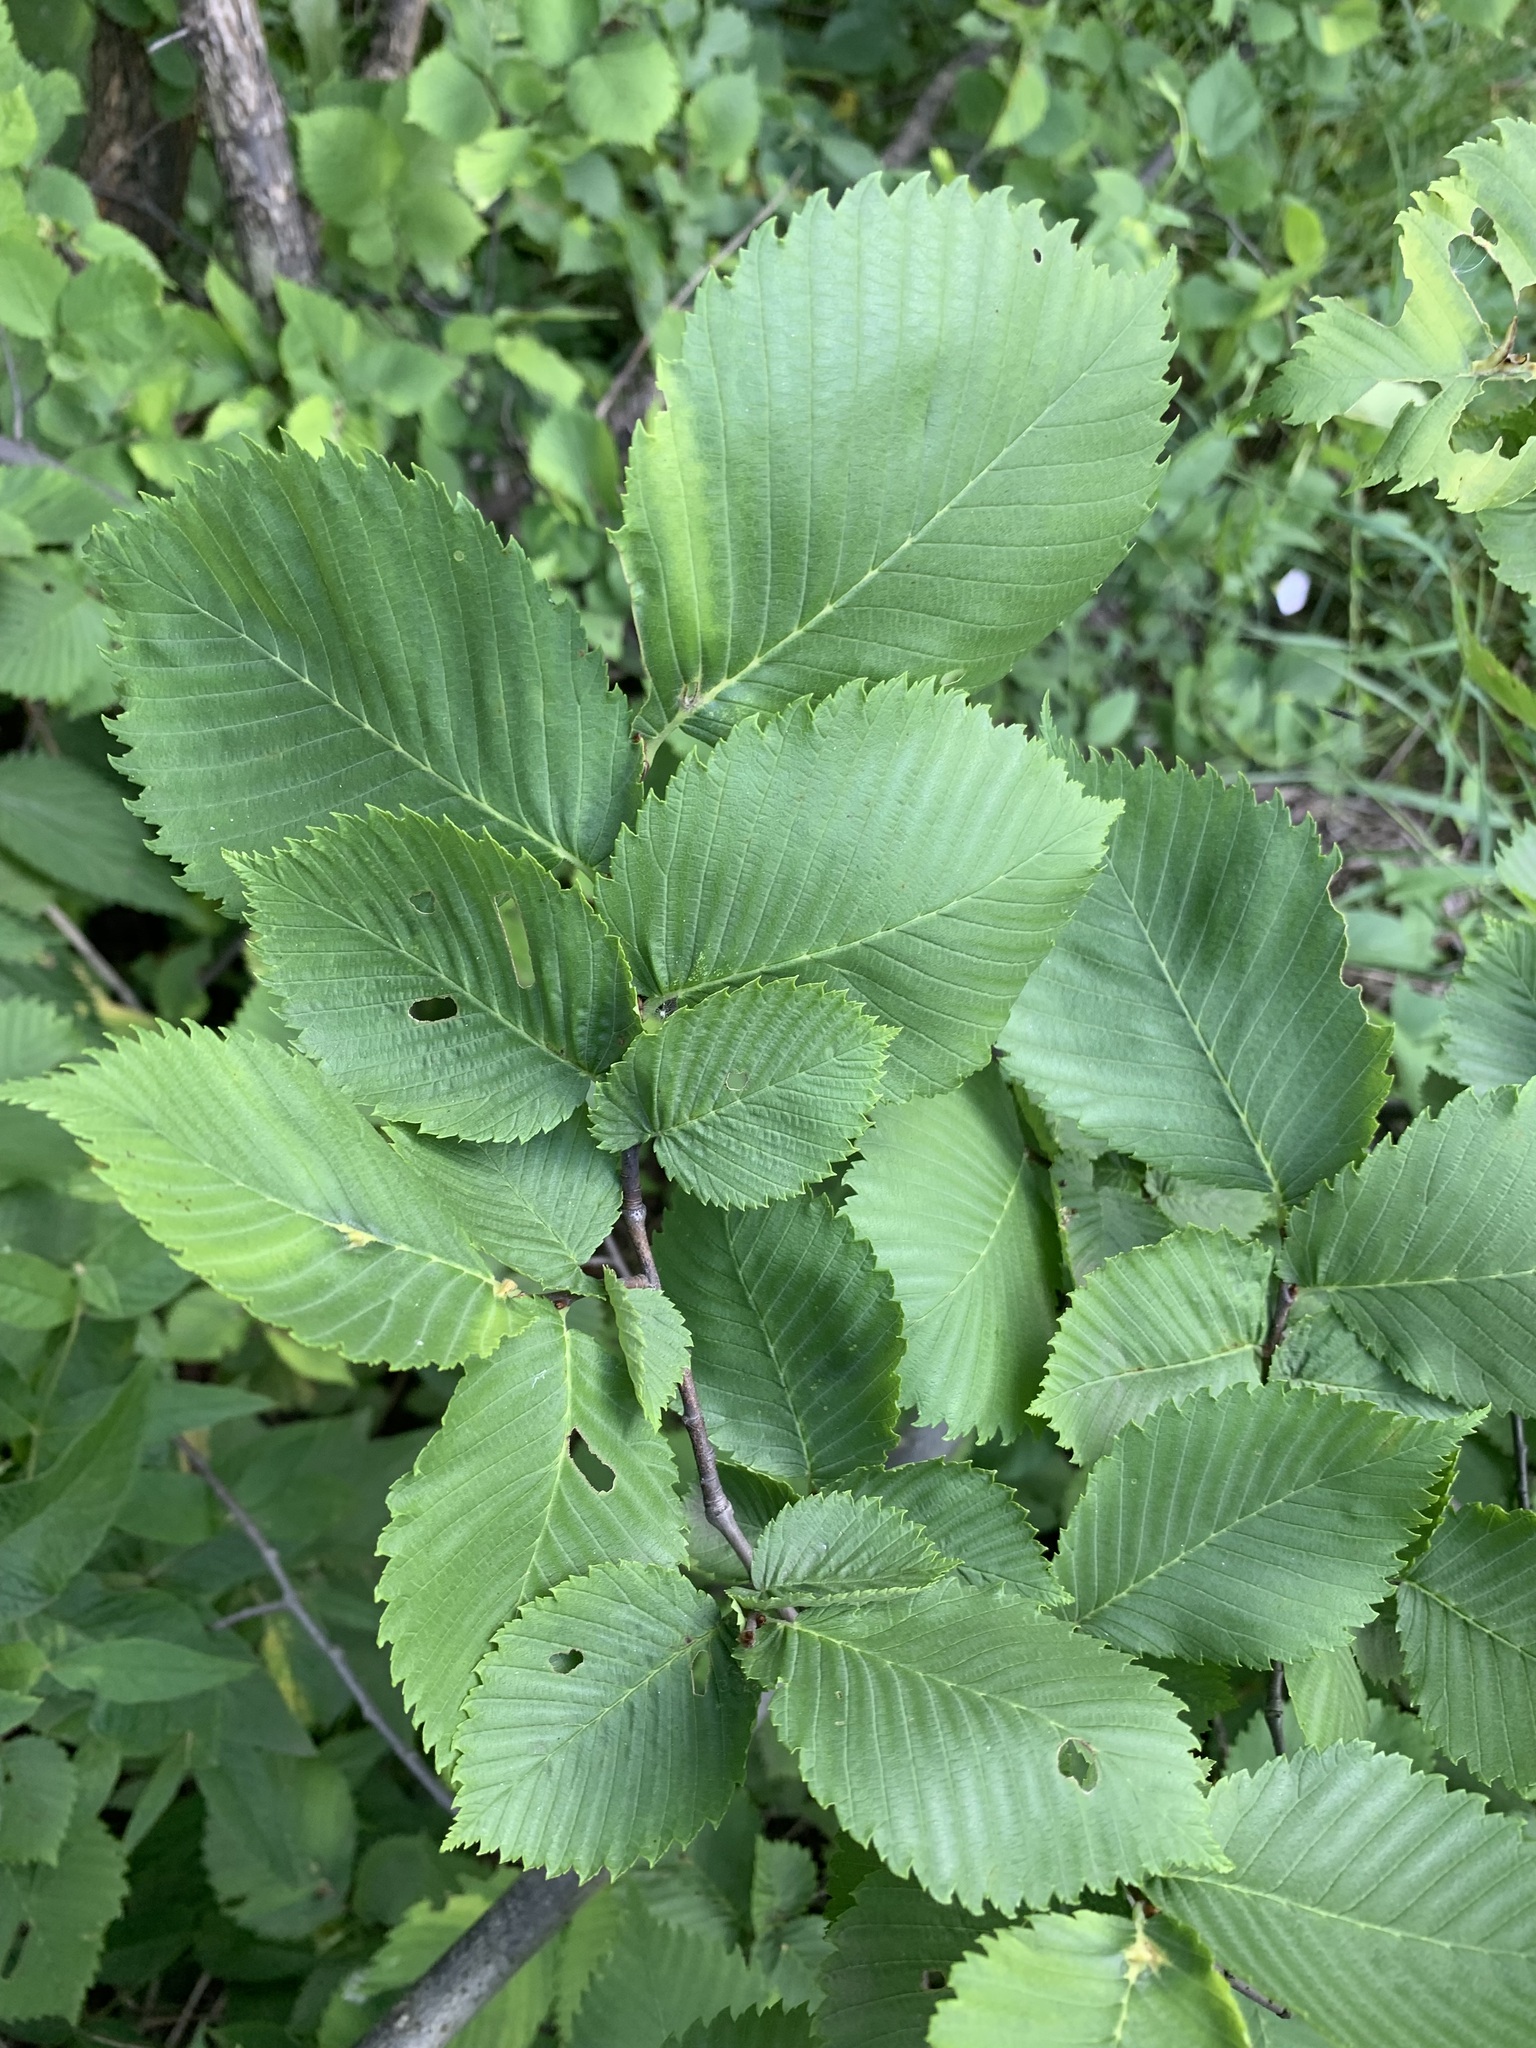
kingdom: Plantae
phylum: Tracheophyta
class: Magnoliopsida
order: Rosales
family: Ulmaceae
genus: Ulmus
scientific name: Ulmus laevis
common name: European white-elm
